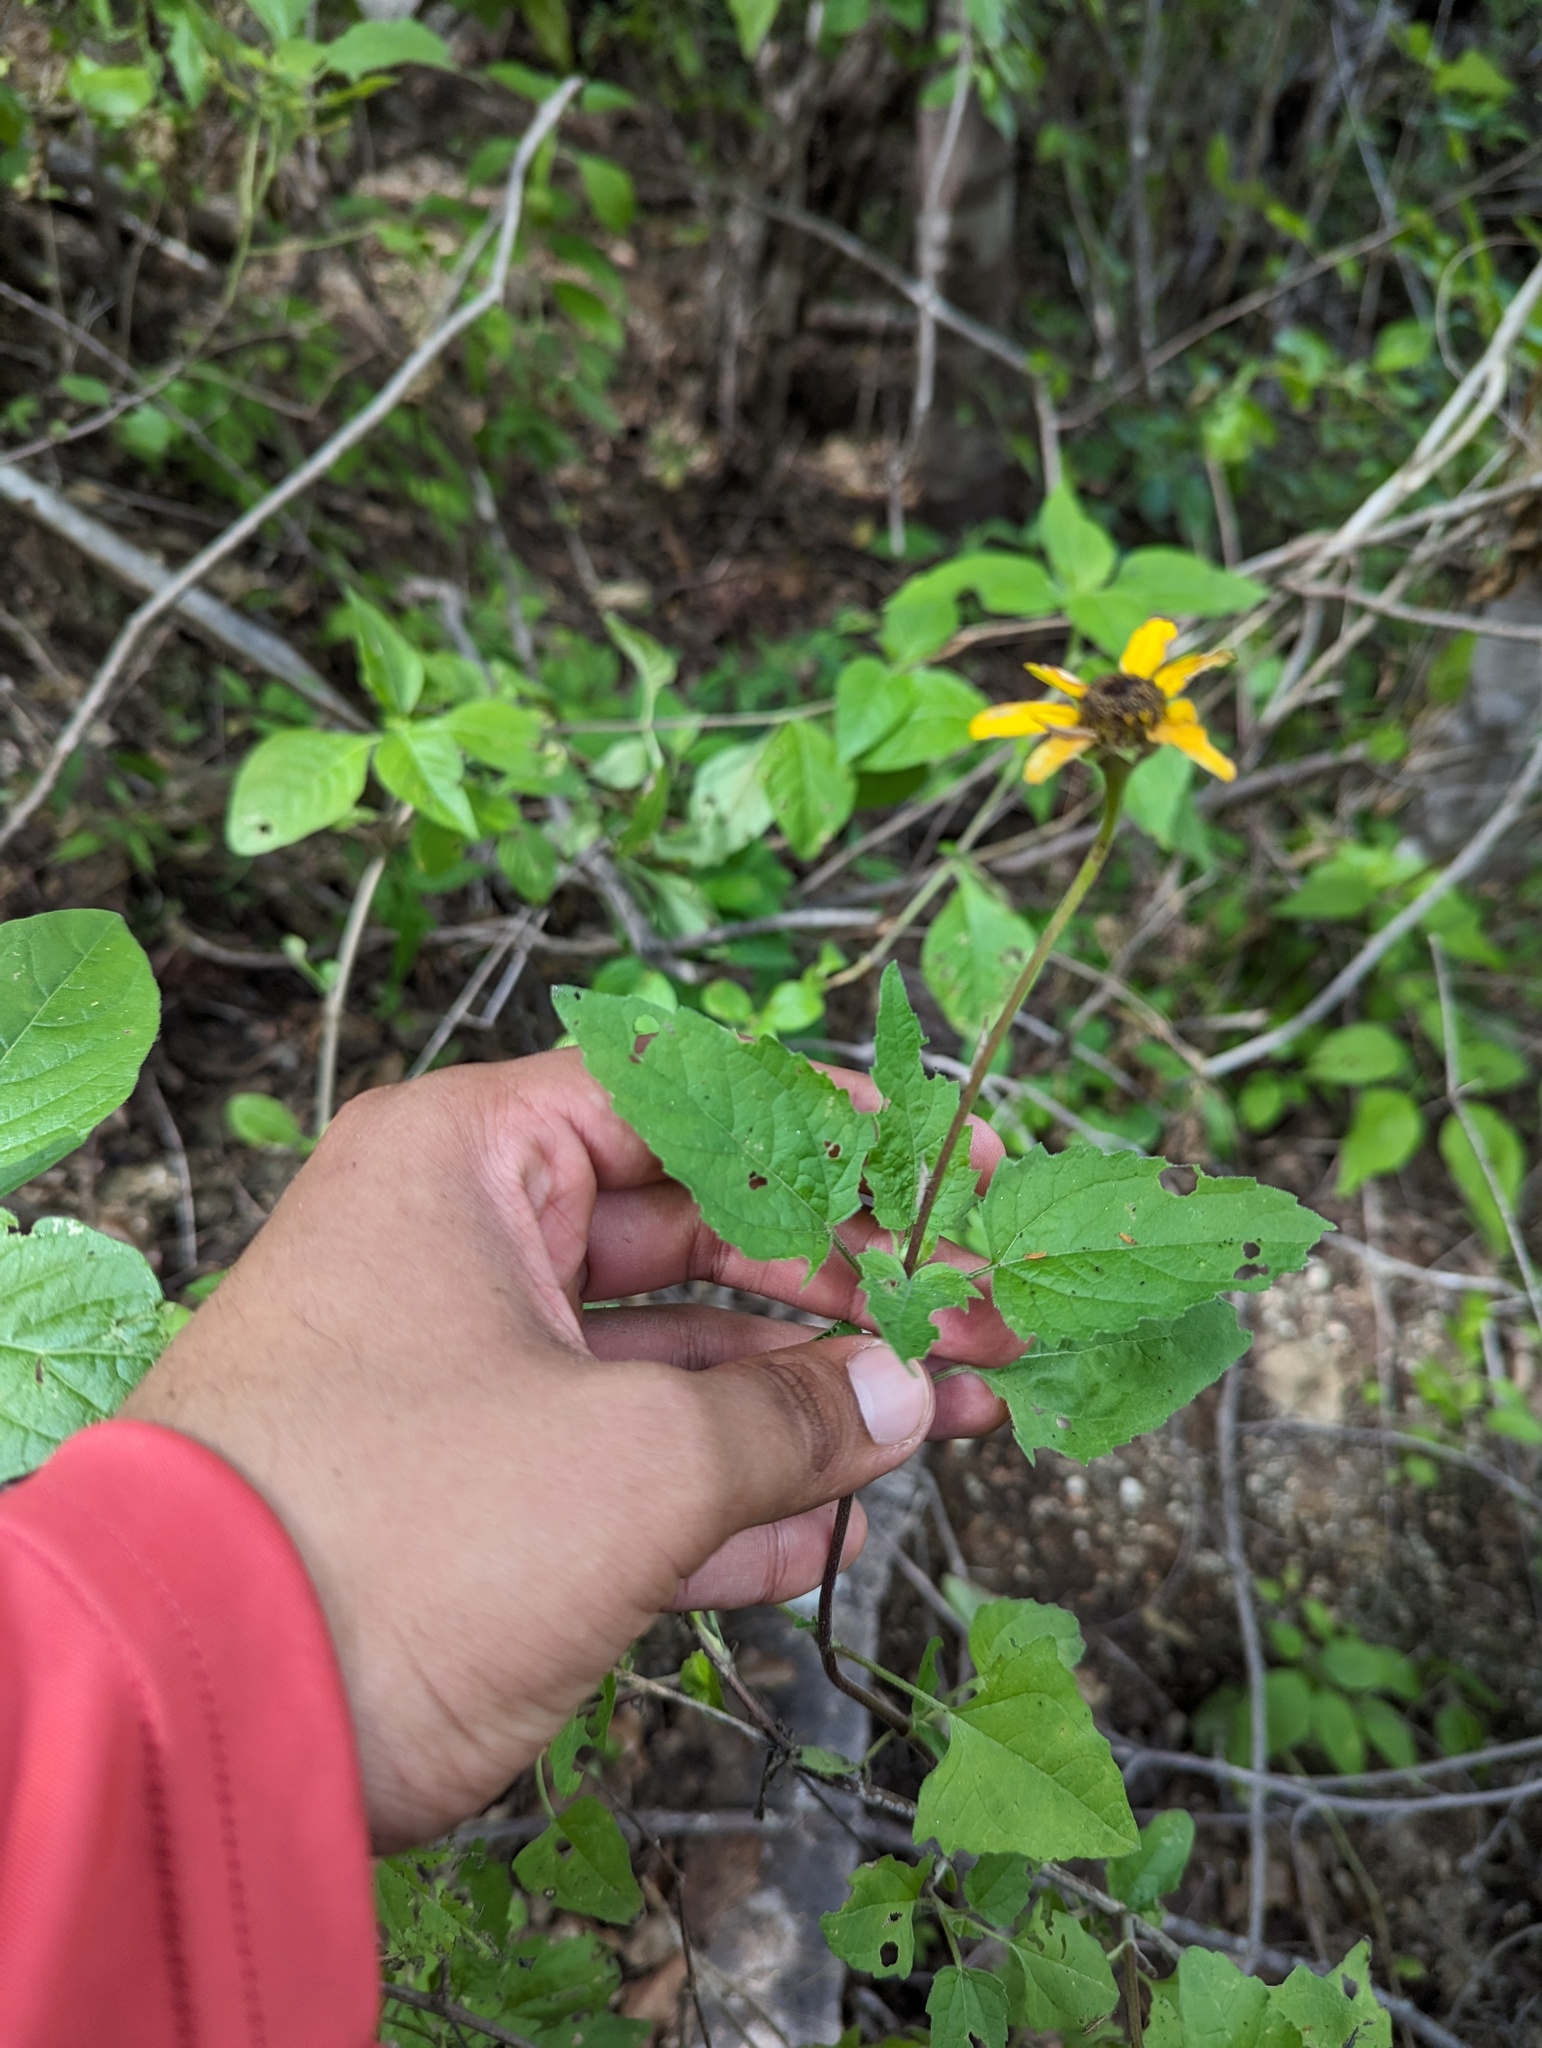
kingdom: Plantae
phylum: Tracheophyta
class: Magnoliopsida
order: Asterales
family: Asteraceae
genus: Heliopsis
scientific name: Heliopsis anomala
